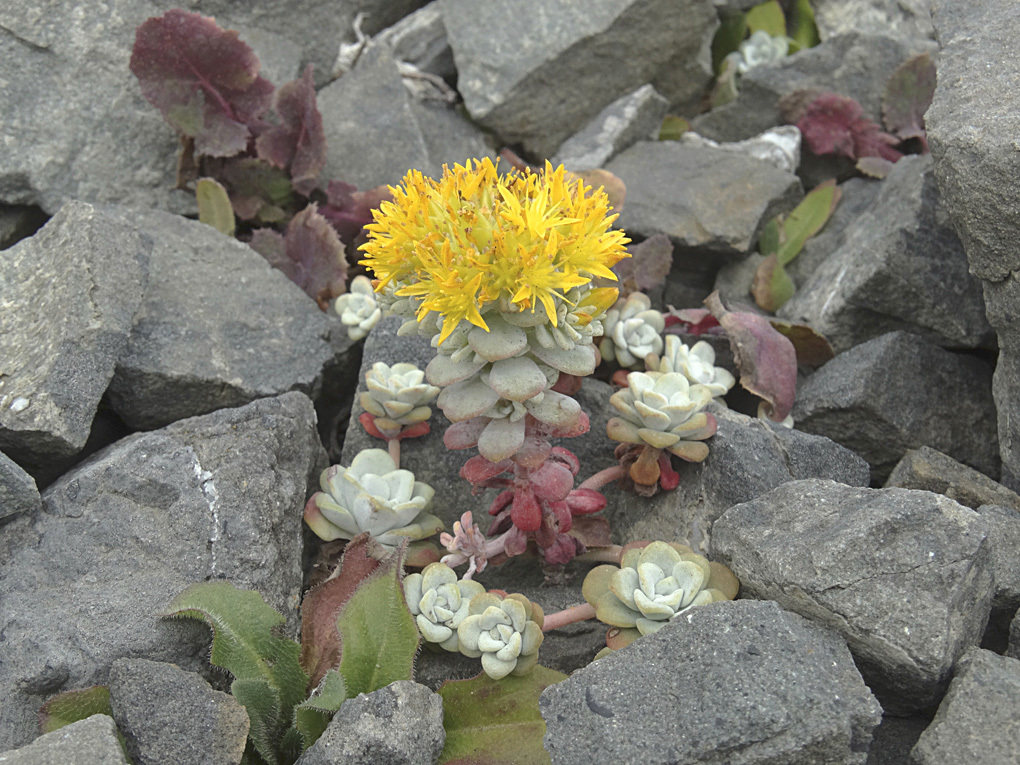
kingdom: Plantae
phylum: Tracheophyta
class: Magnoliopsida
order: Saxifragales
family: Crassulaceae
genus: Sedum
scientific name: Sedum spathulifolium
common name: Colorado stonecrop
